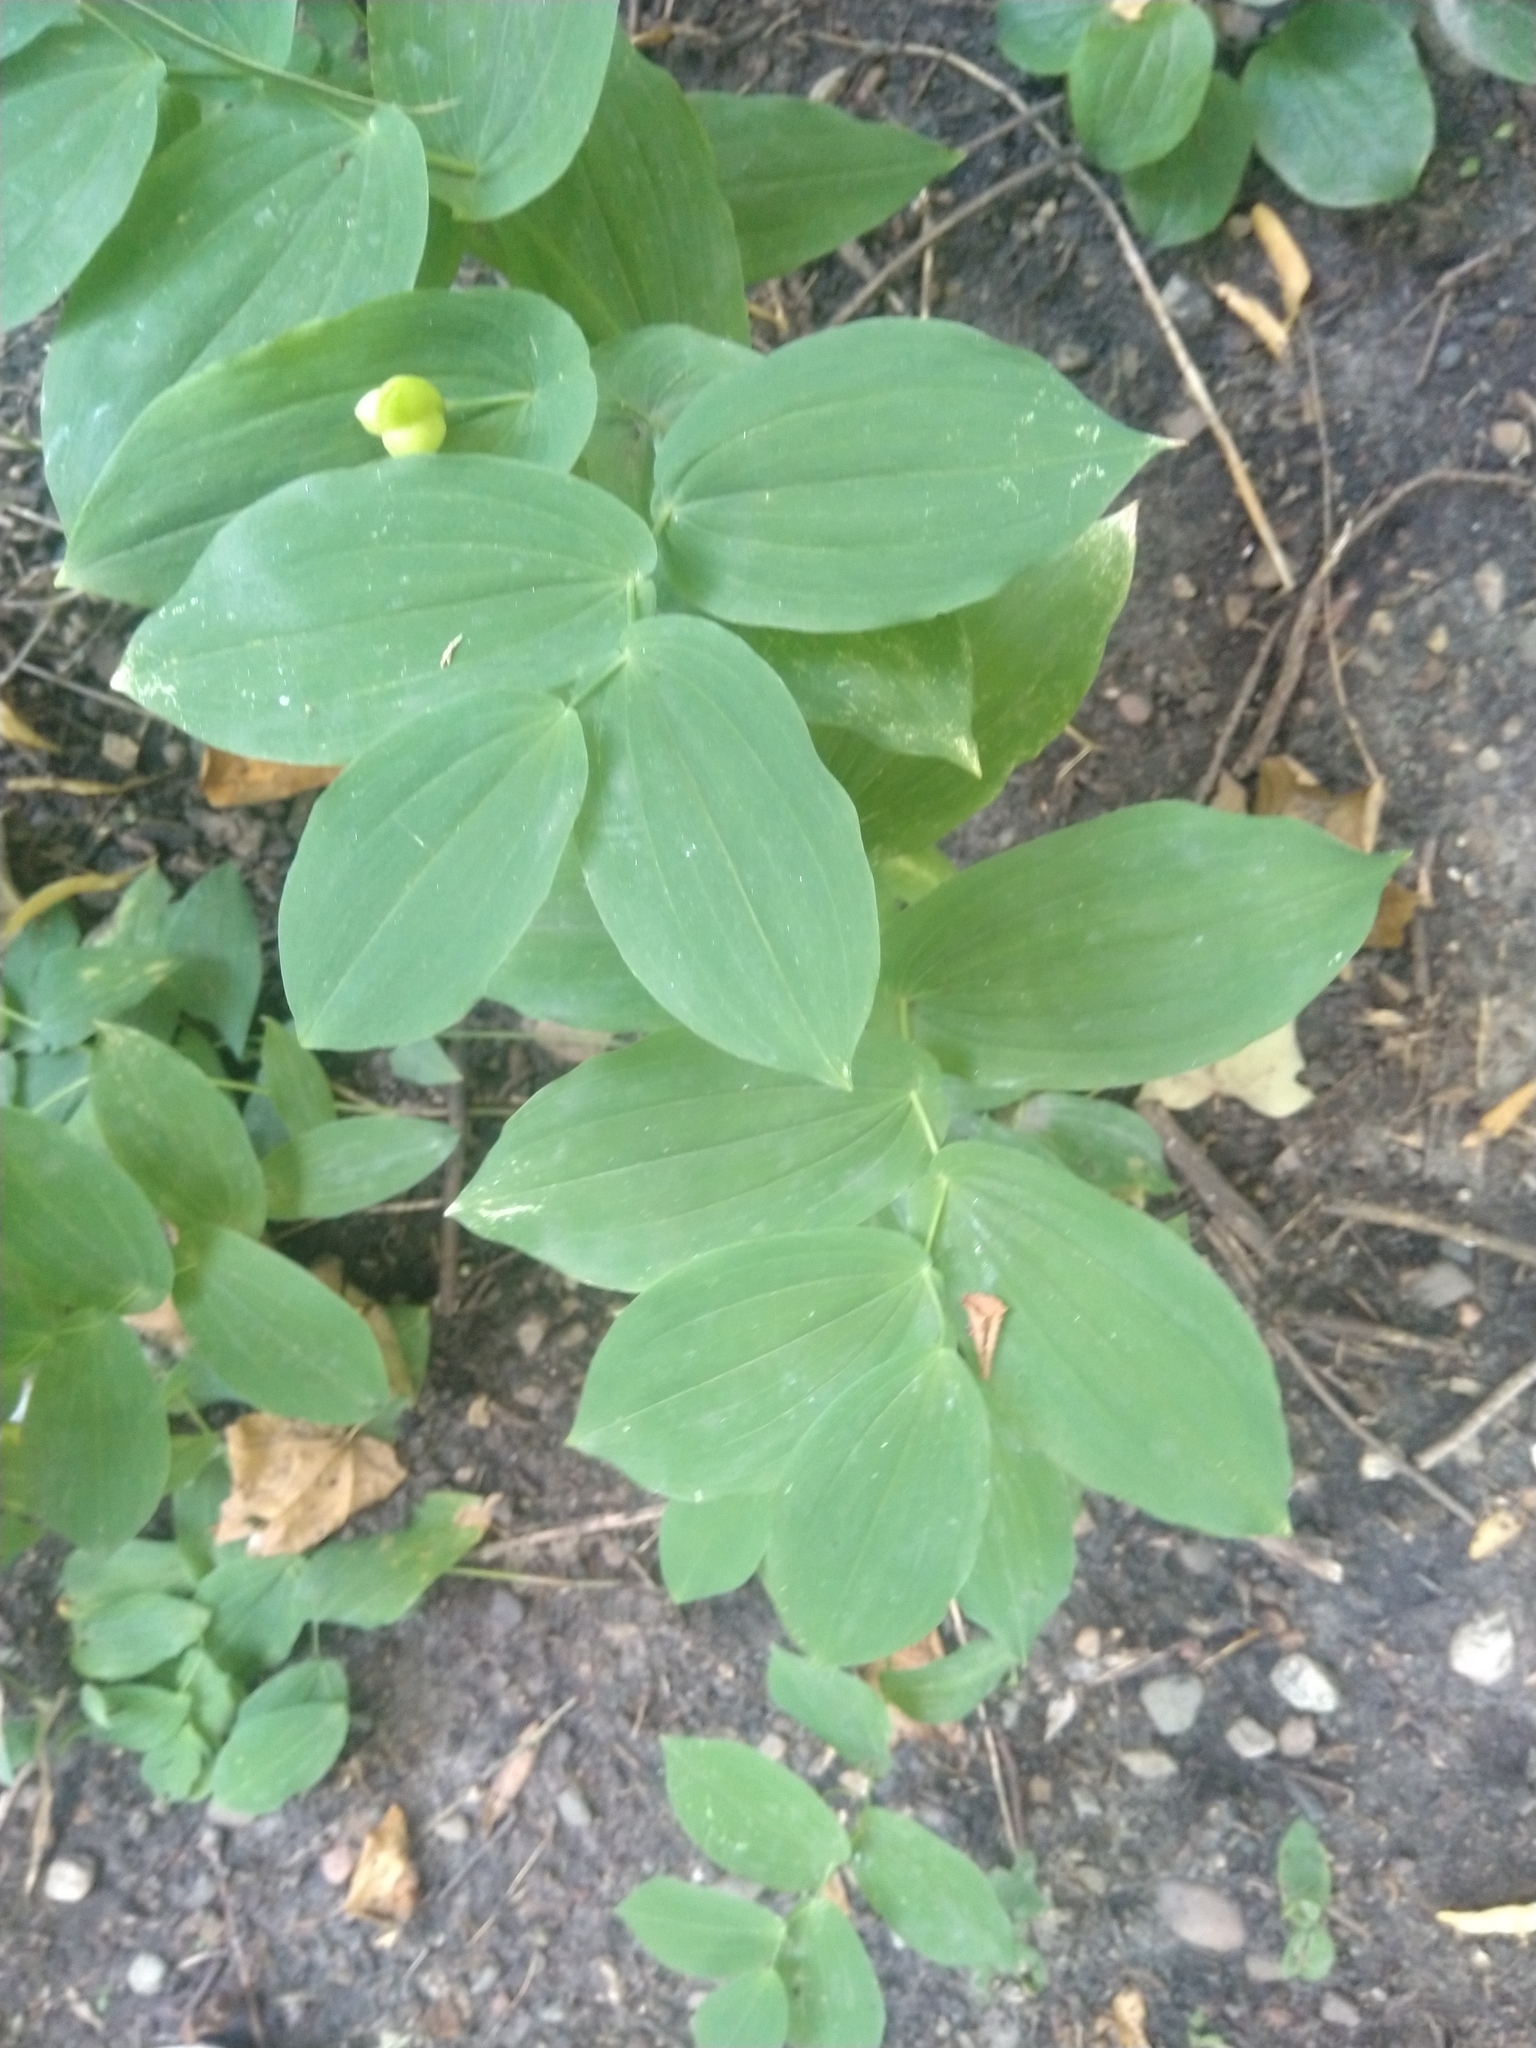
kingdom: Plantae
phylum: Tracheophyta
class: Liliopsida
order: Liliales
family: Colchicaceae
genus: Uvularia
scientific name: Uvularia grandiflora
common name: Bellwort
